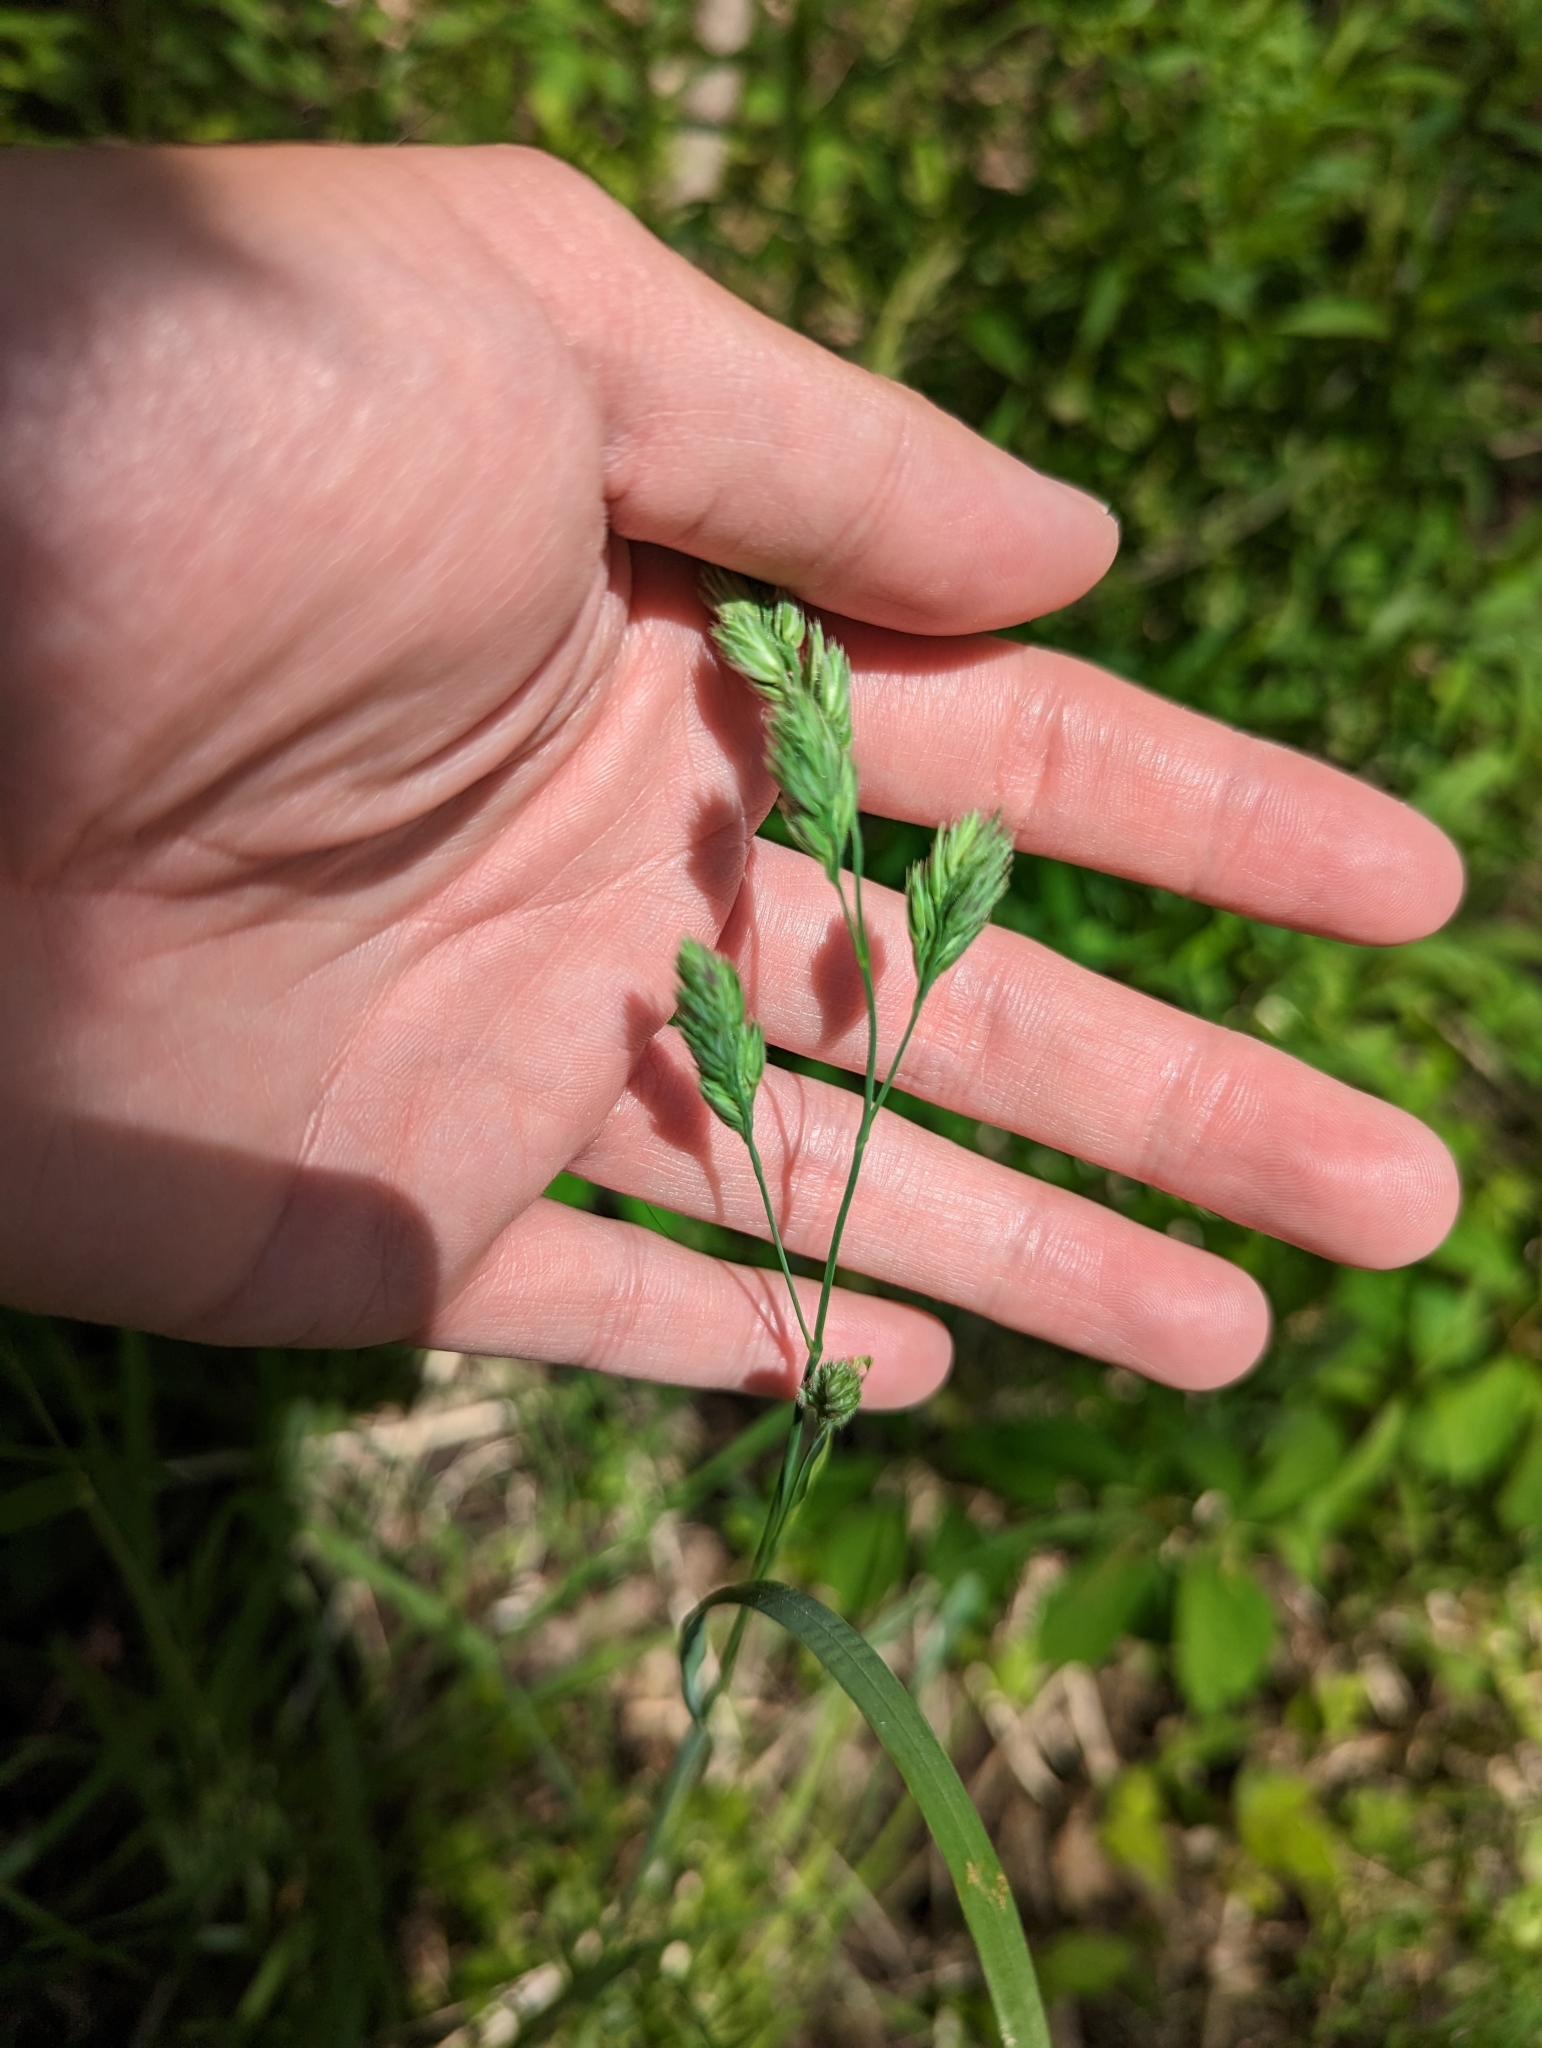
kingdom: Plantae
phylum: Tracheophyta
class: Liliopsida
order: Poales
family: Poaceae
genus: Dactylis
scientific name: Dactylis glomerata
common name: Orchardgrass
